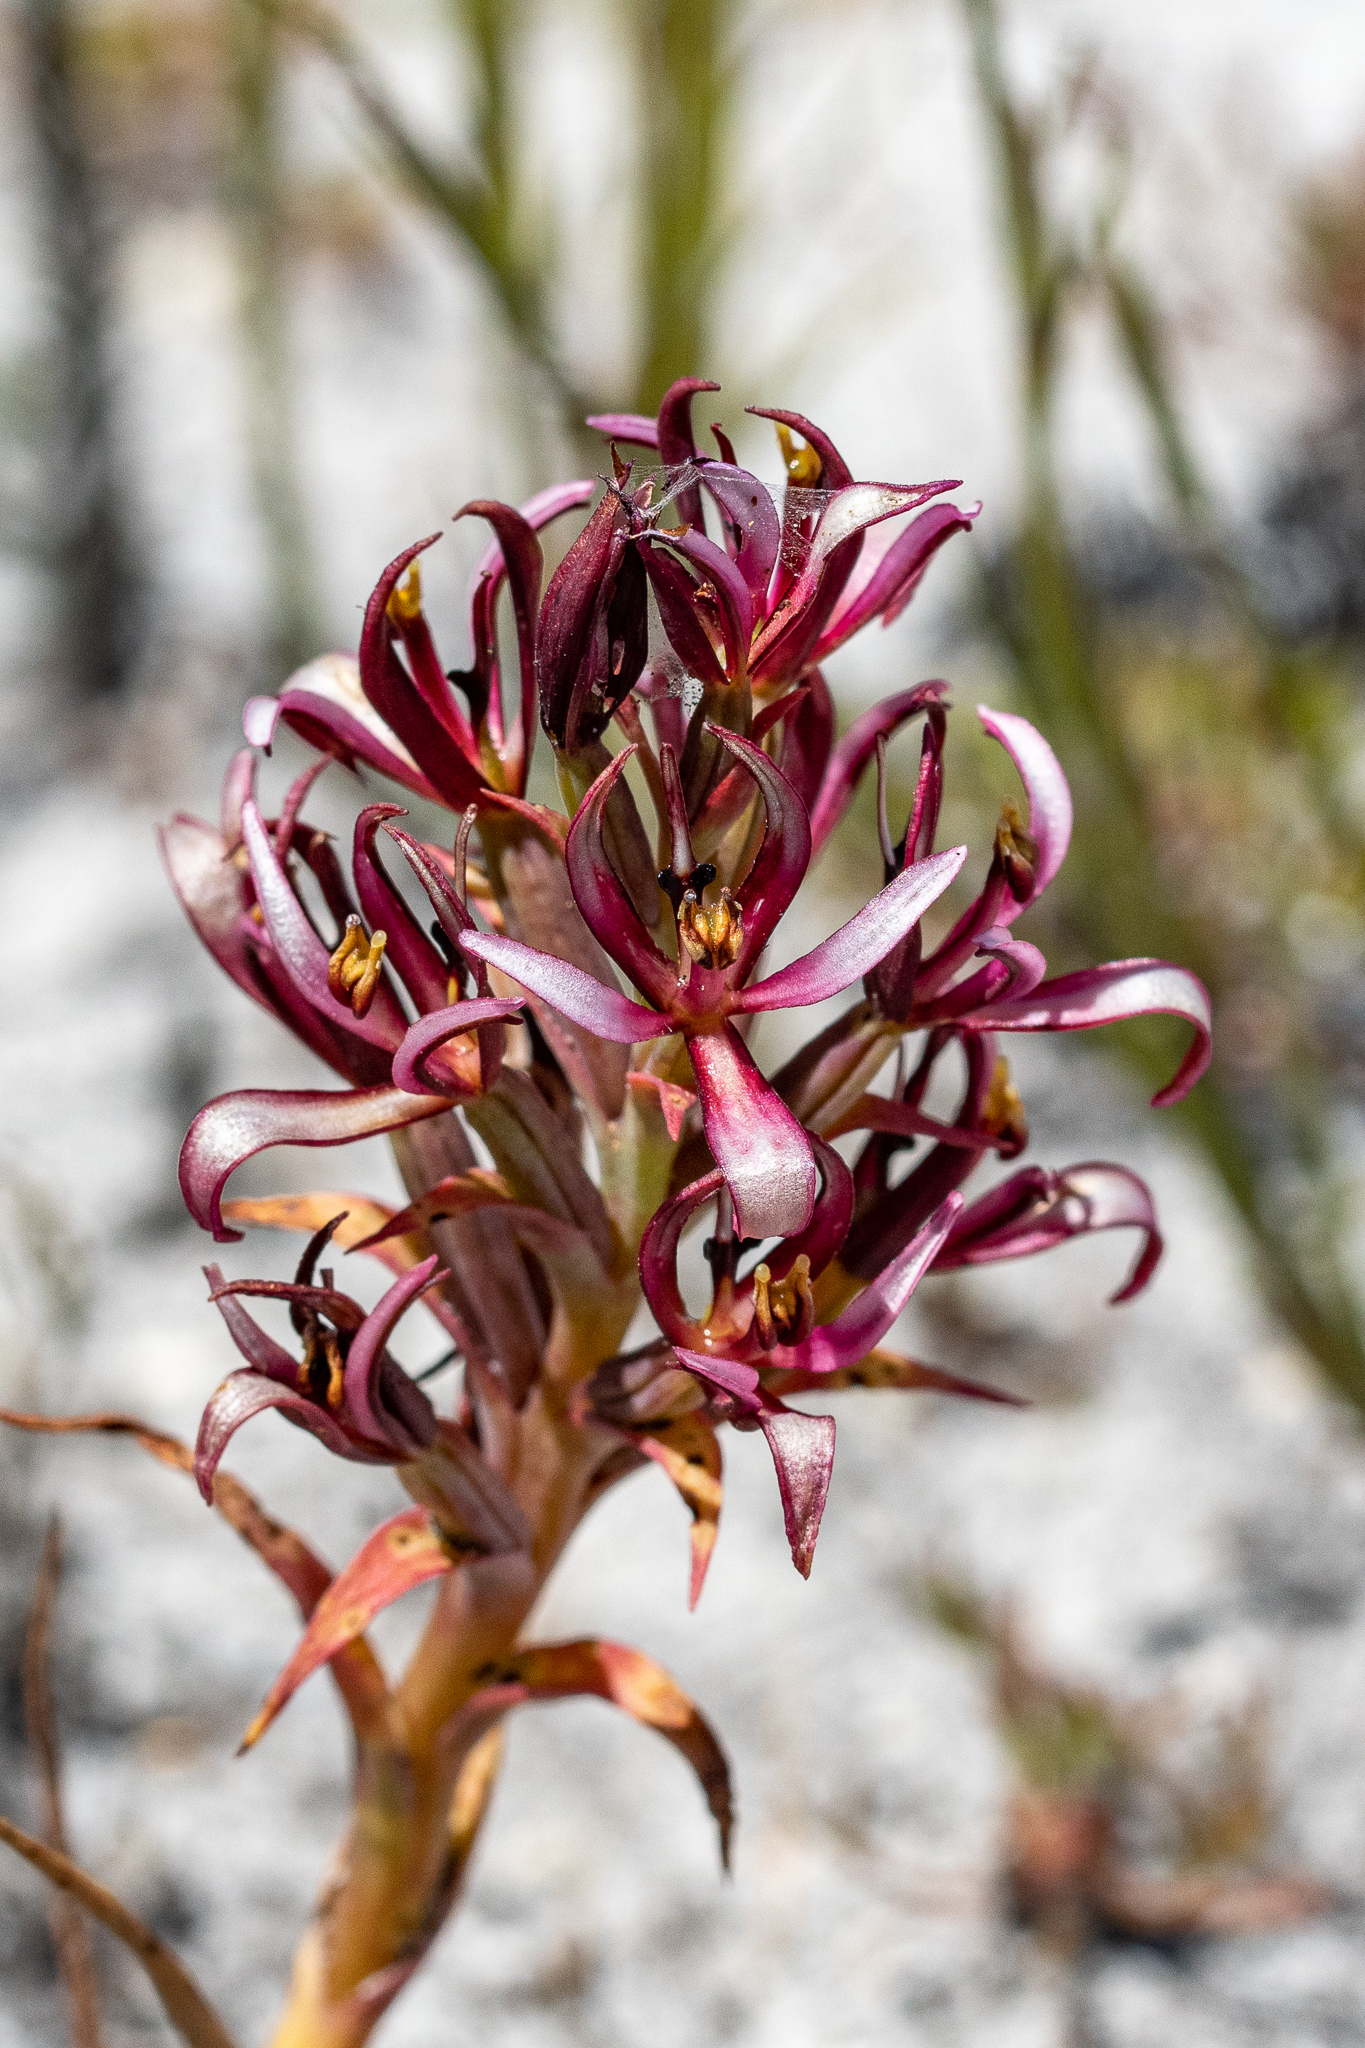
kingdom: Plantae
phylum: Tracheophyta
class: Liliopsida
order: Asparagales
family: Orchidaceae
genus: Pachites
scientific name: Pachites bodkinii
